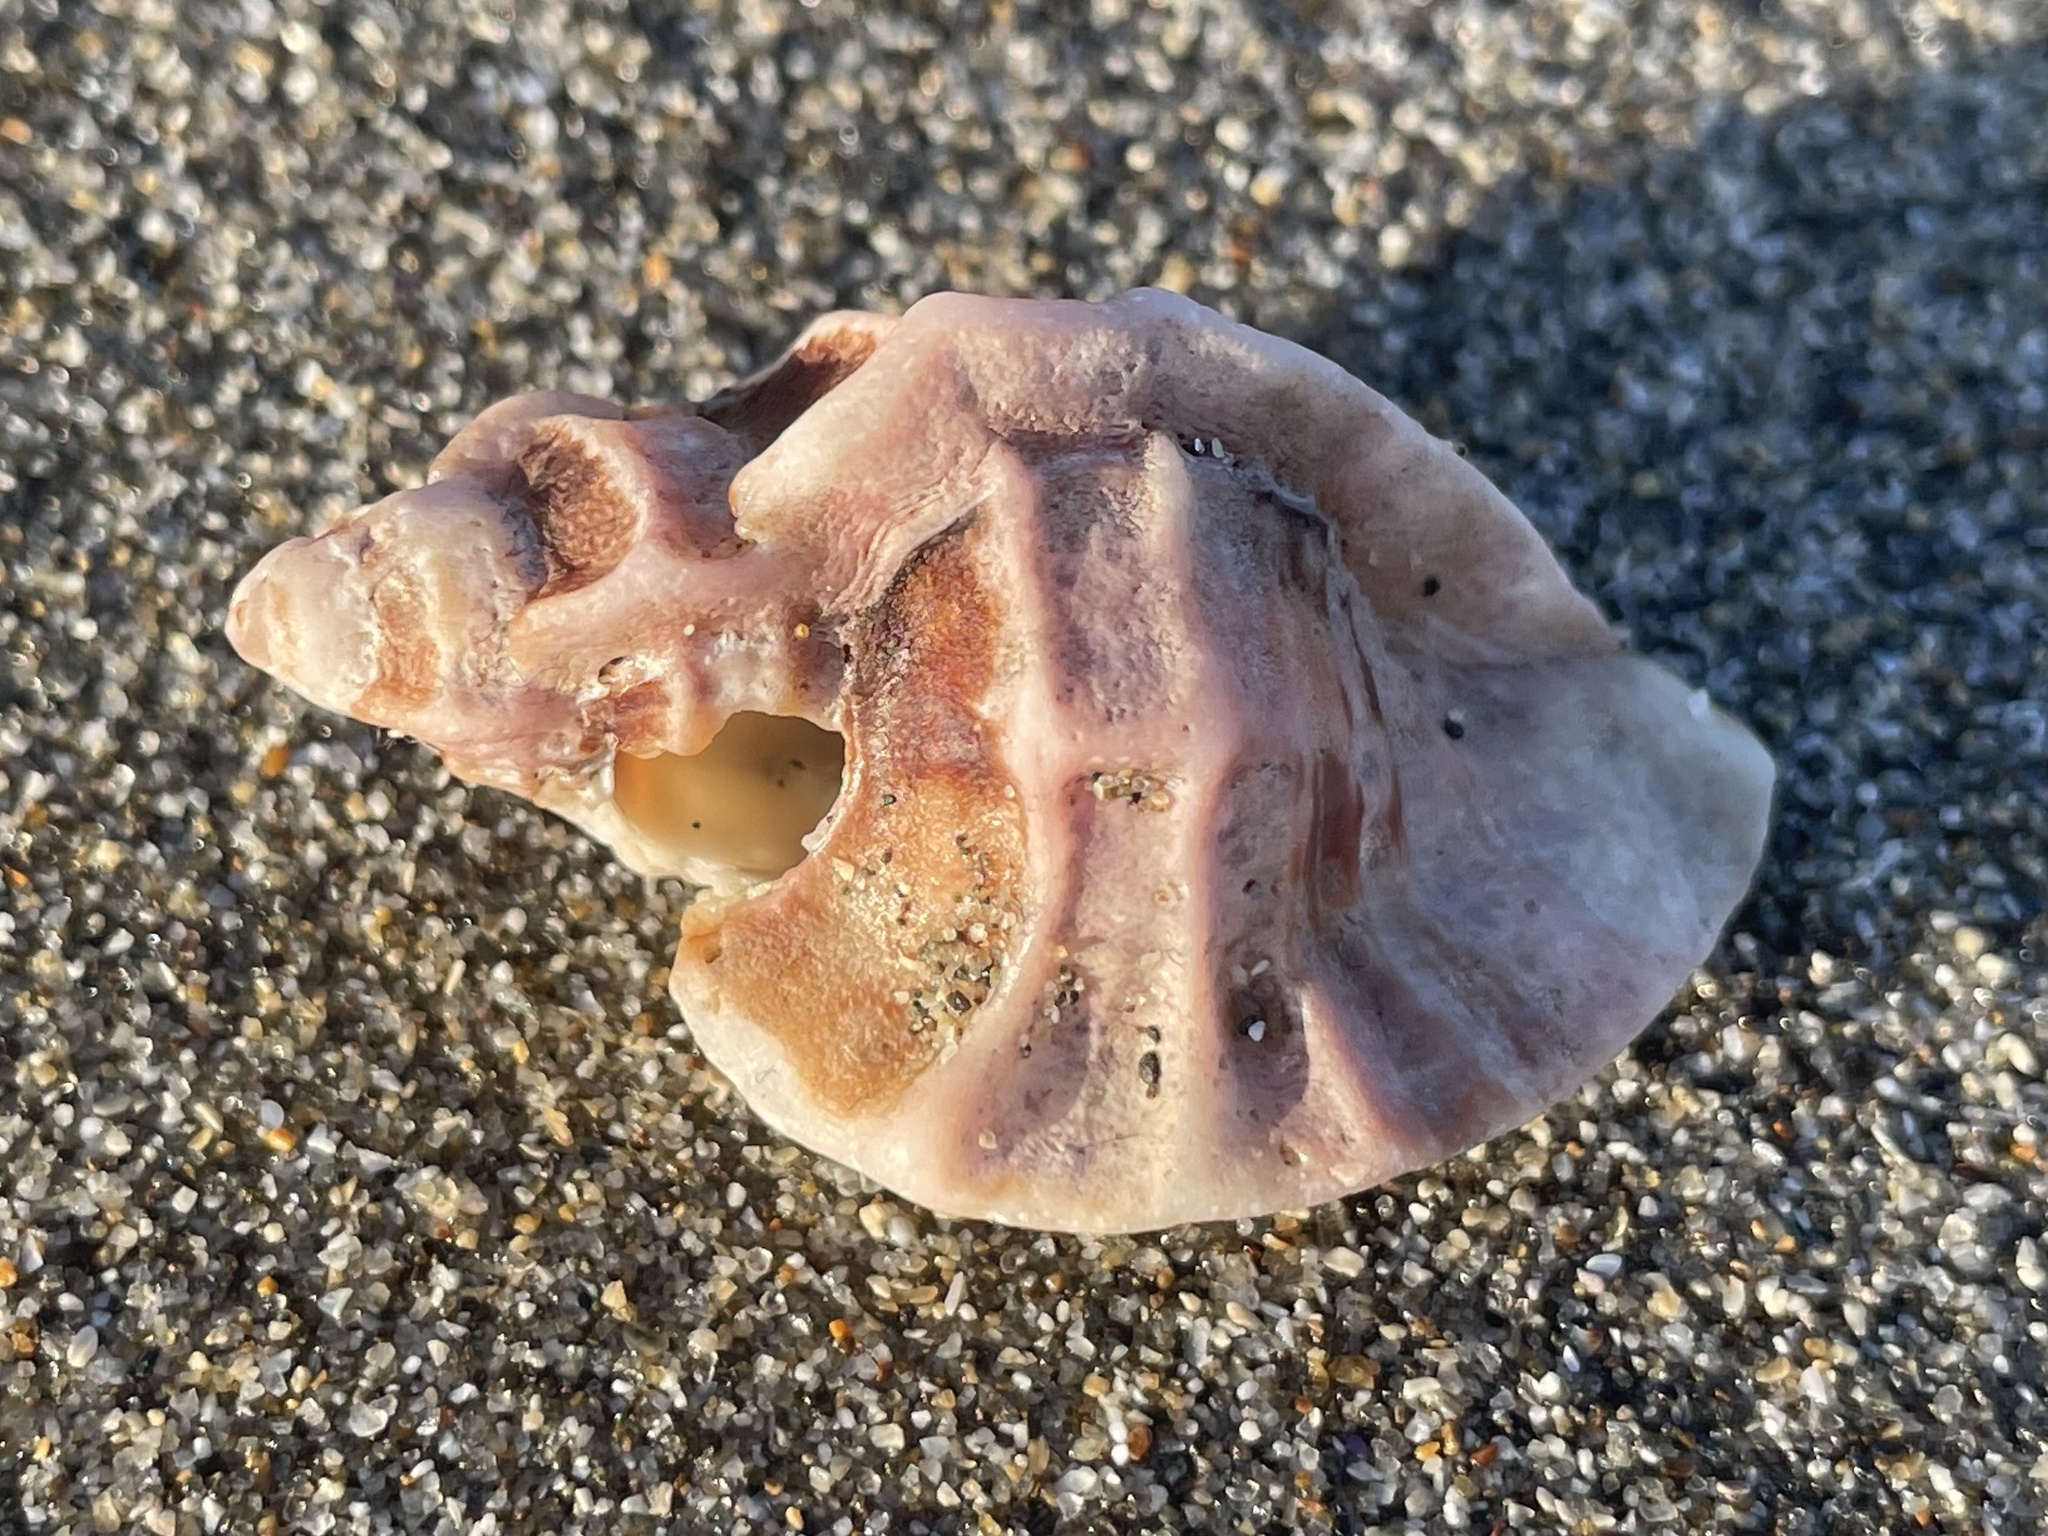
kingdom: Animalia
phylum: Mollusca
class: Gastropoda
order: Neogastropoda
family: Muricidae
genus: Ceratostoma
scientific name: Ceratostoma foliatum
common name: Foliate thorn purpura
